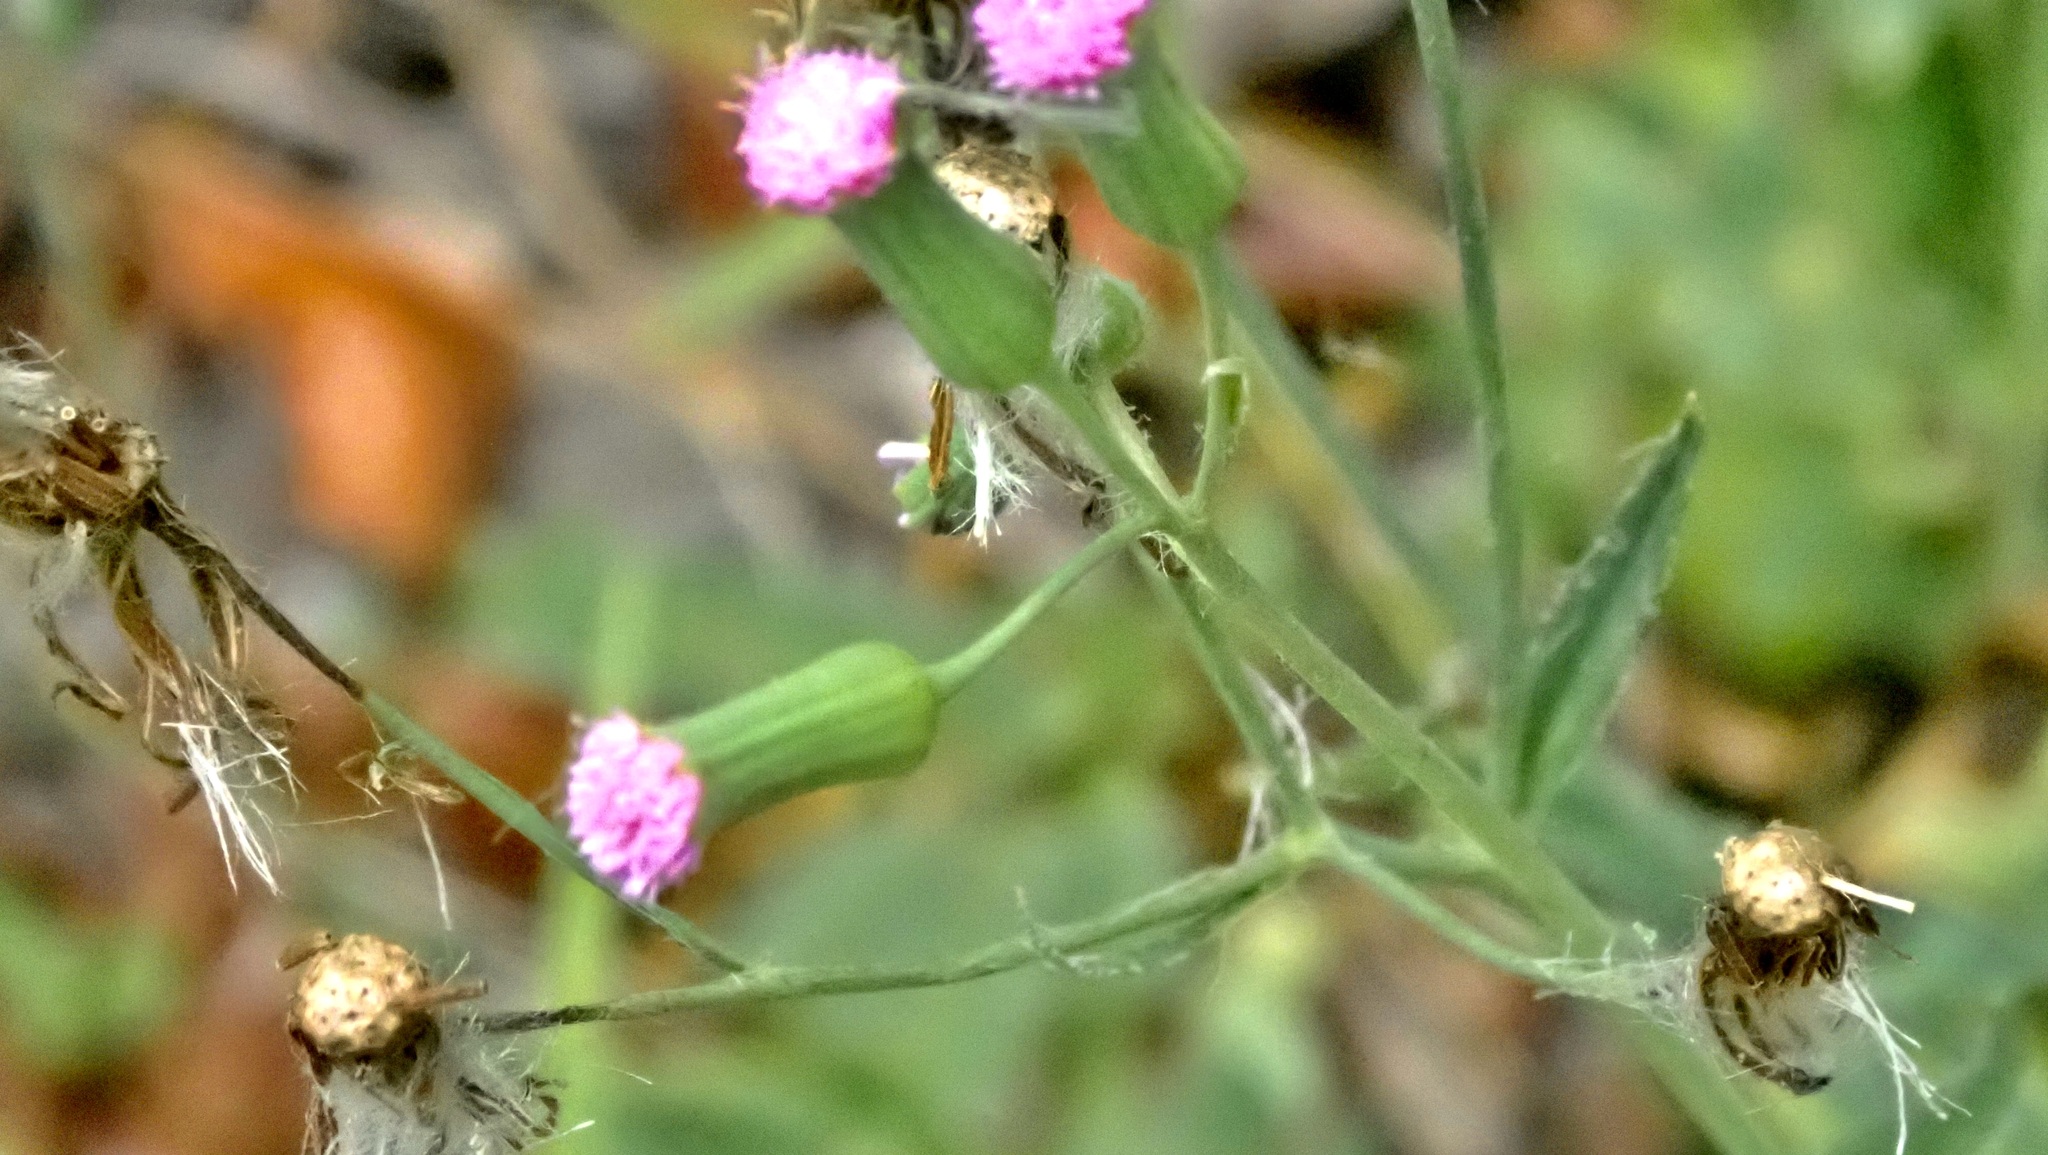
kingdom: Plantae
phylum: Tracheophyta
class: Magnoliopsida
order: Asterales
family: Asteraceae
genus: Cyanthillium
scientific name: Cyanthillium cinereum
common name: Little ironweed
